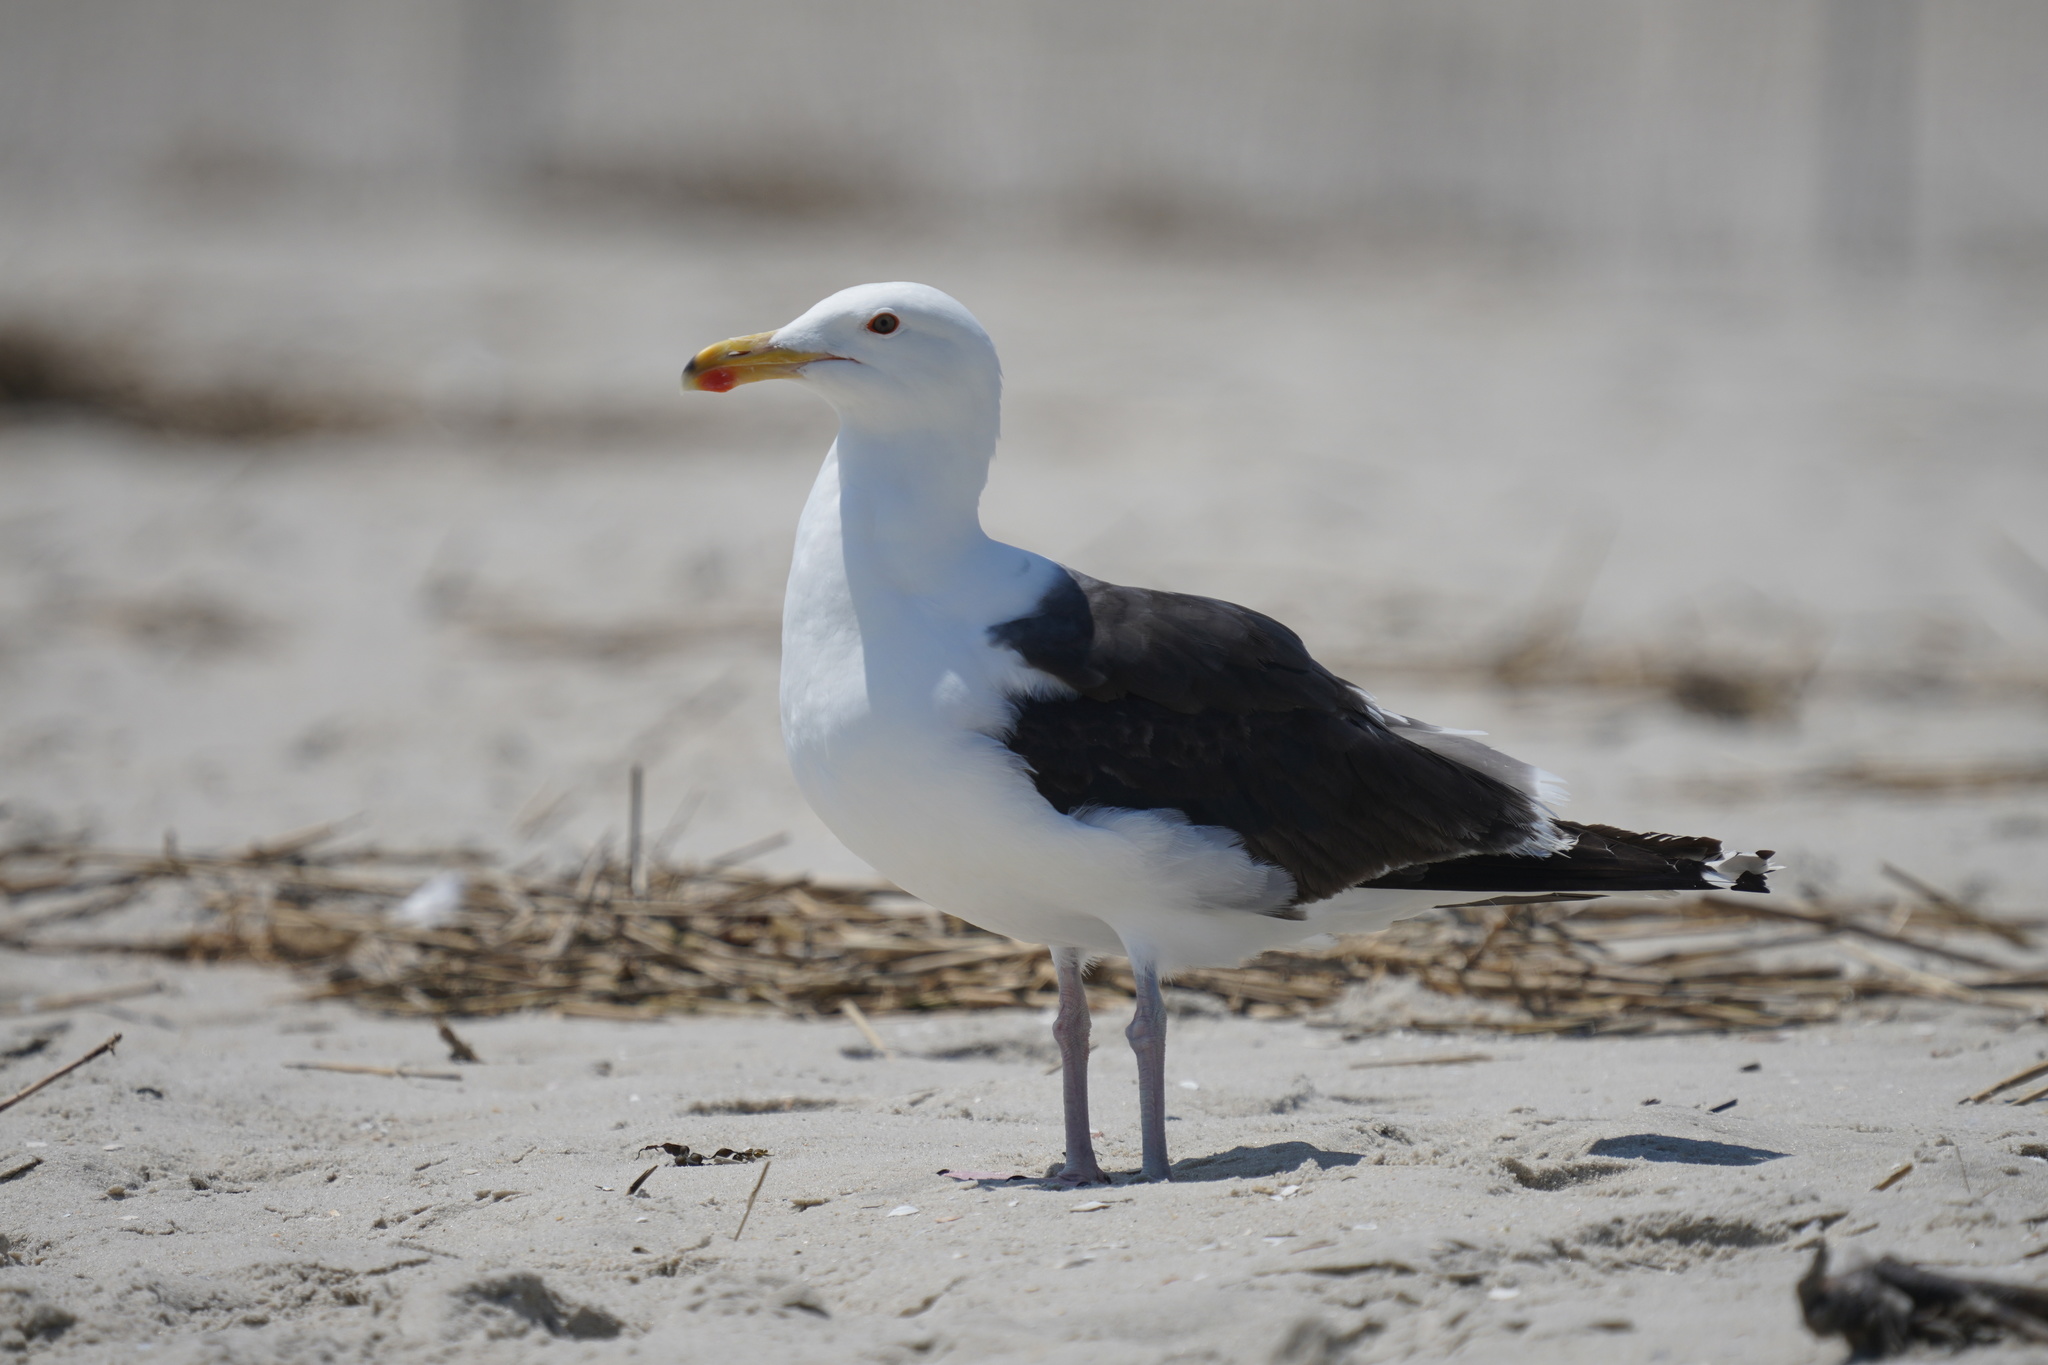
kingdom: Animalia
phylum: Chordata
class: Aves
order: Charadriiformes
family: Laridae
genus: Larus
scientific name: Larus marinus
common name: Great black-backed gull
